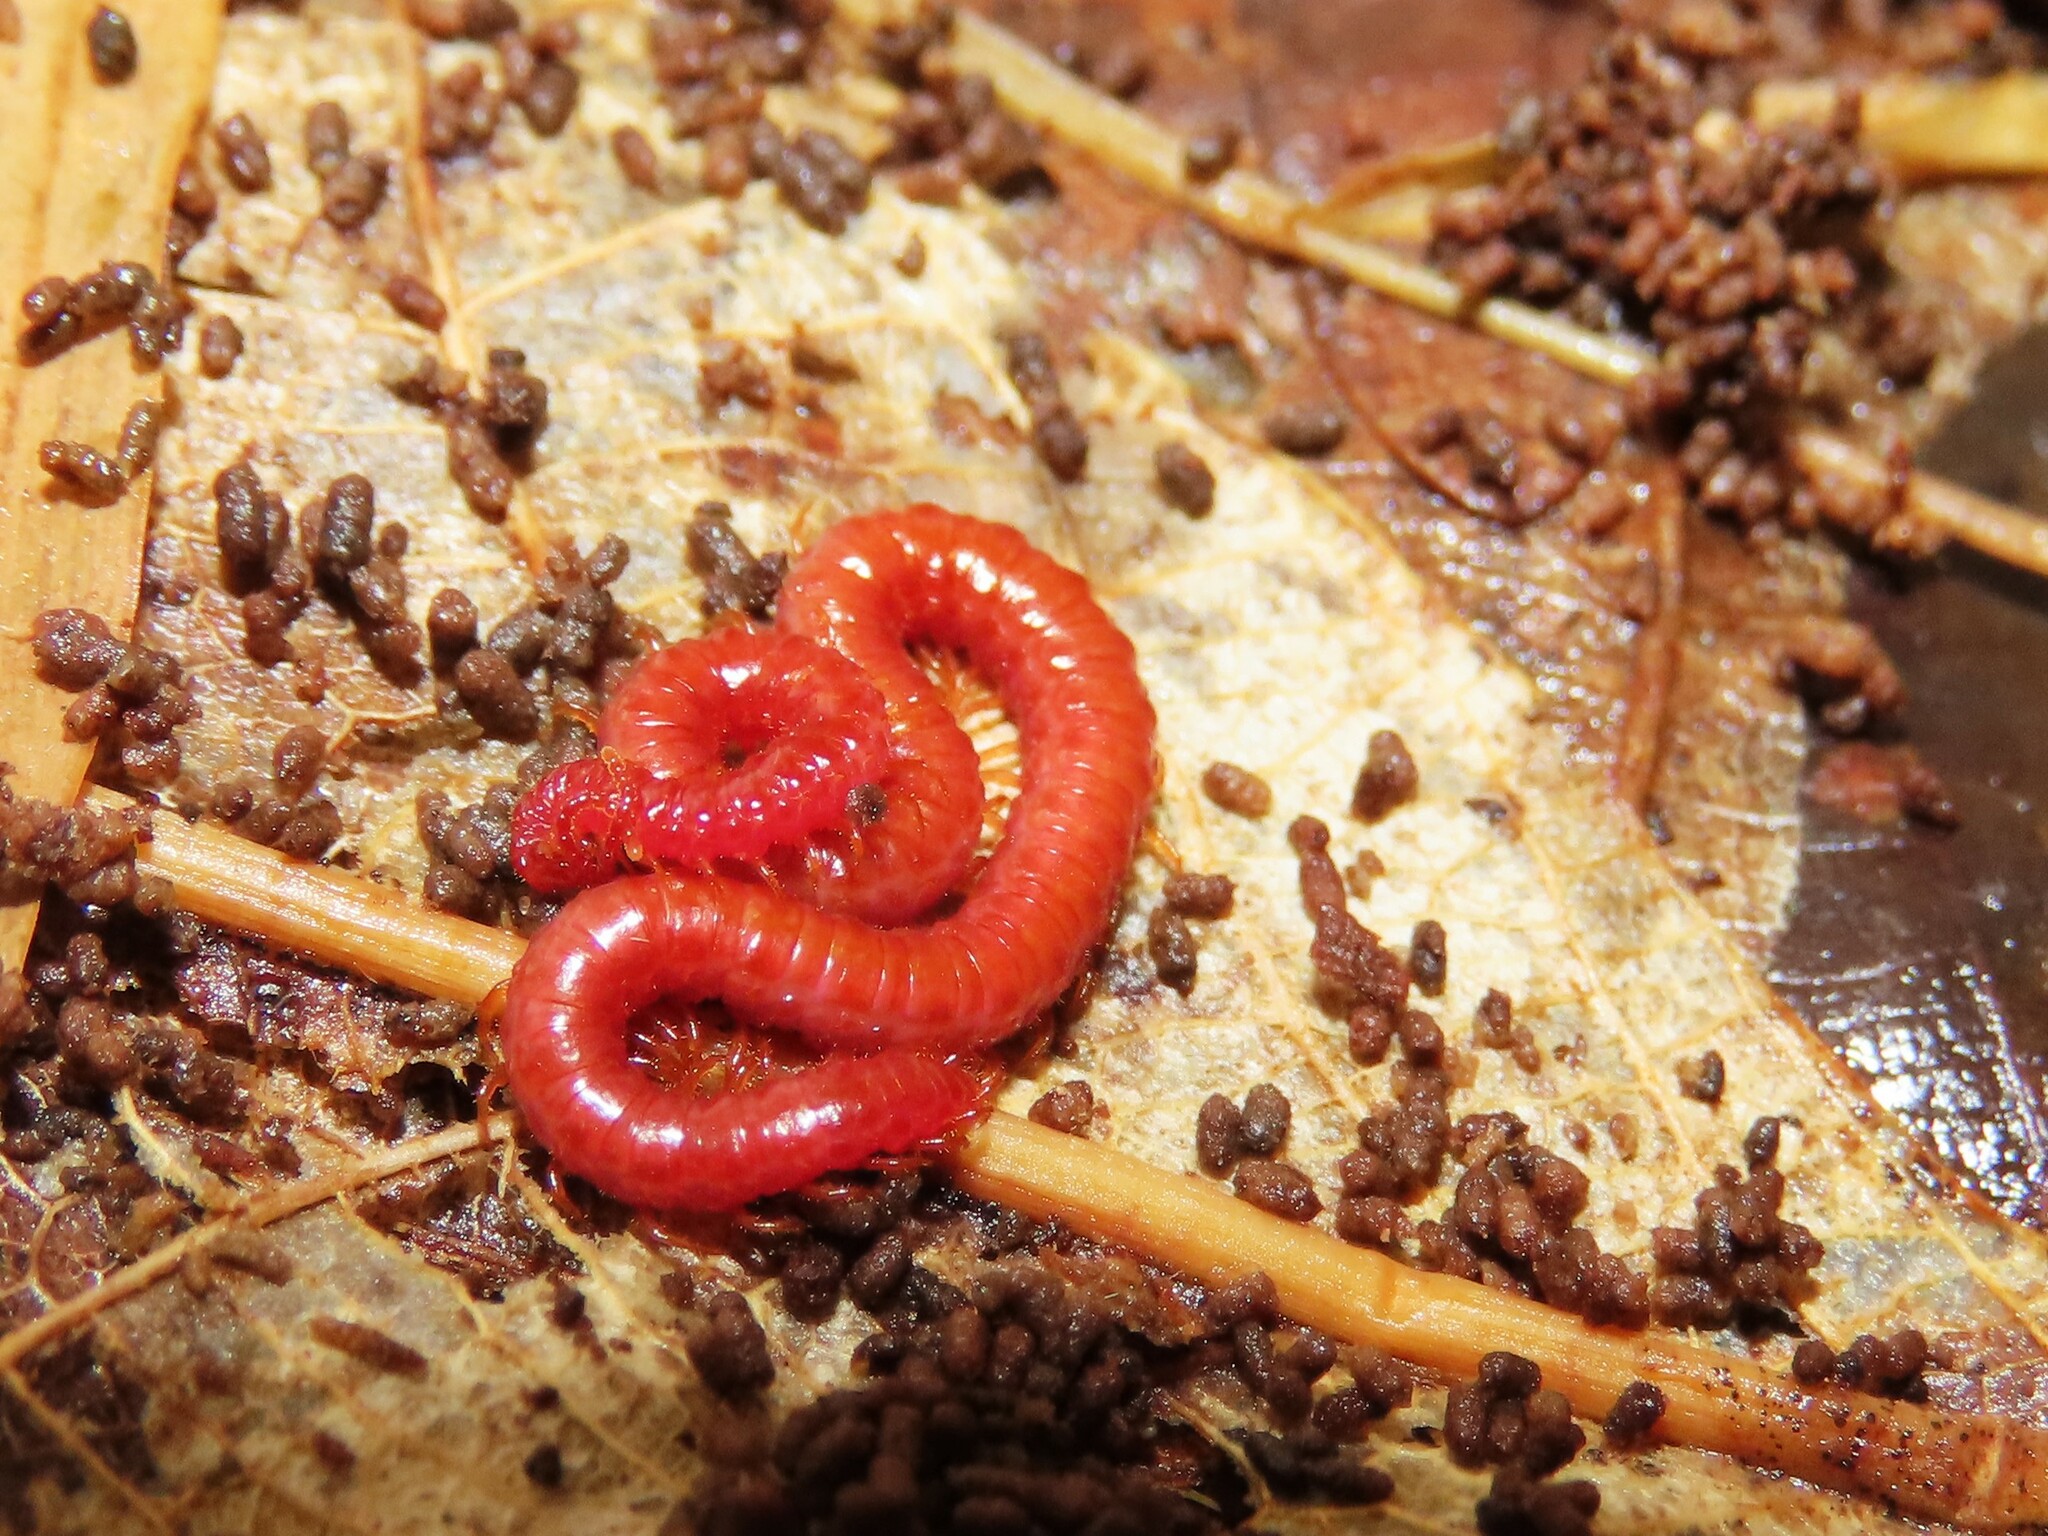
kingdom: Animalia
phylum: Arthropoda
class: Chilopoda
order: Geophilomorpha
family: Linotaeniidae
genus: Strigamia
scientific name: Strigamia bothriopus
